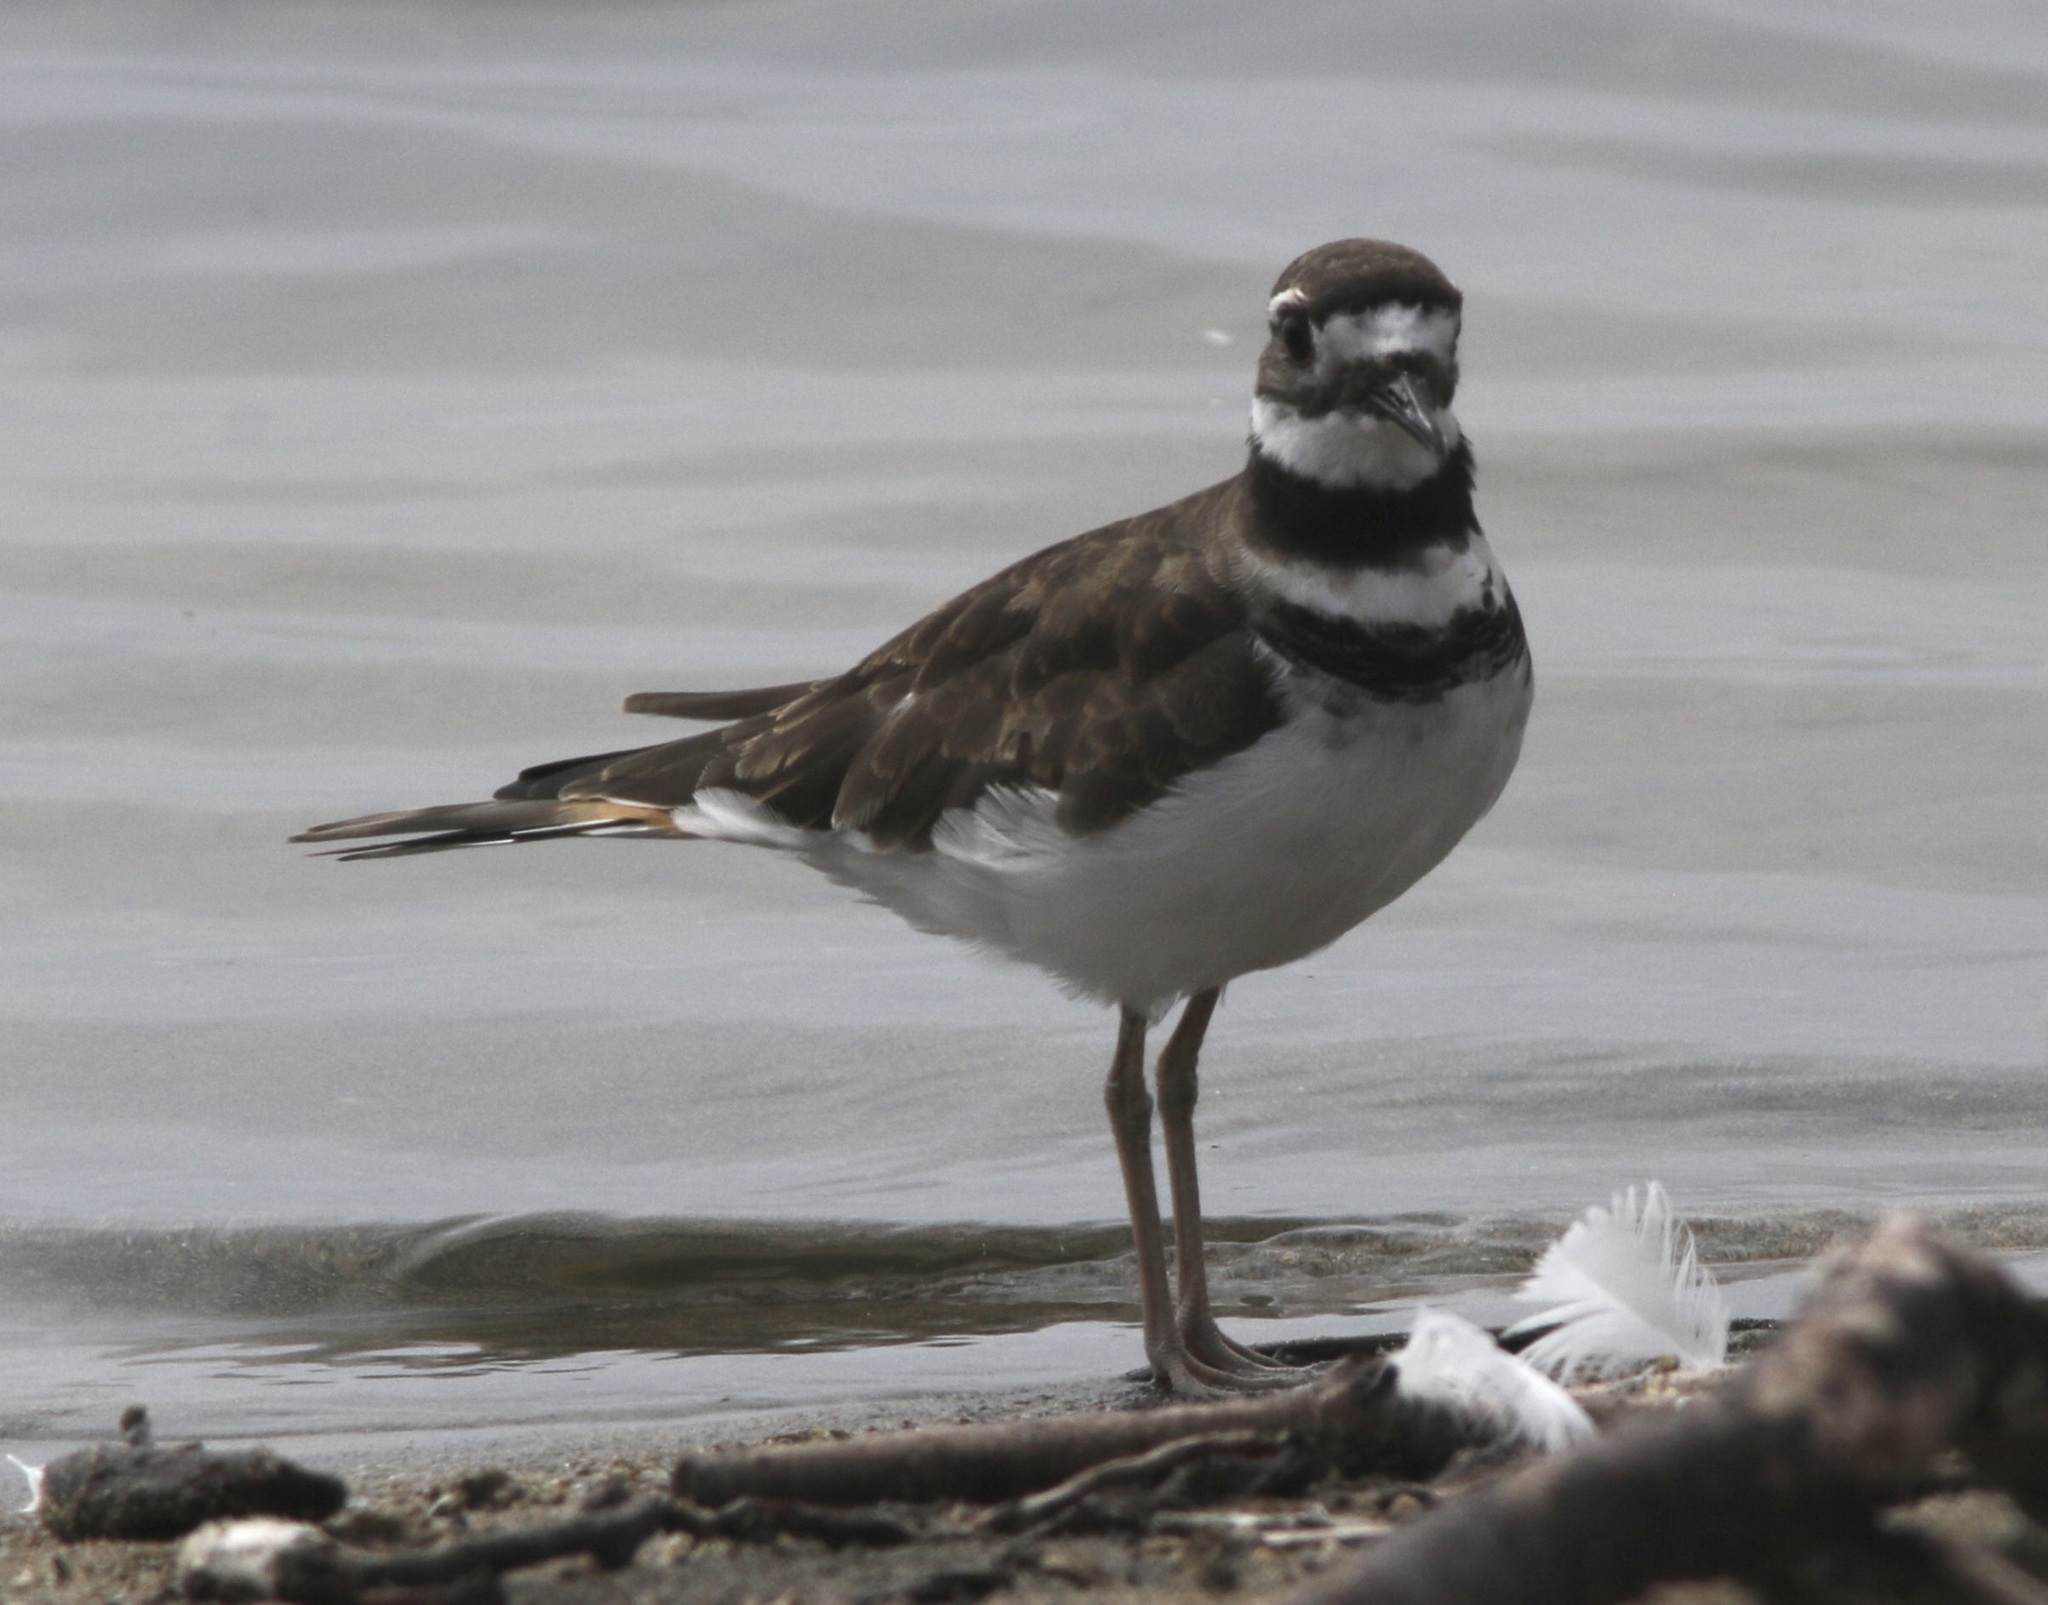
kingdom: Animalia
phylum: Chordata
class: Aves
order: Charadriiformes
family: Charadriidae
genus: Charadrius
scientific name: Charadrius vociferus
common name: Killdeer
